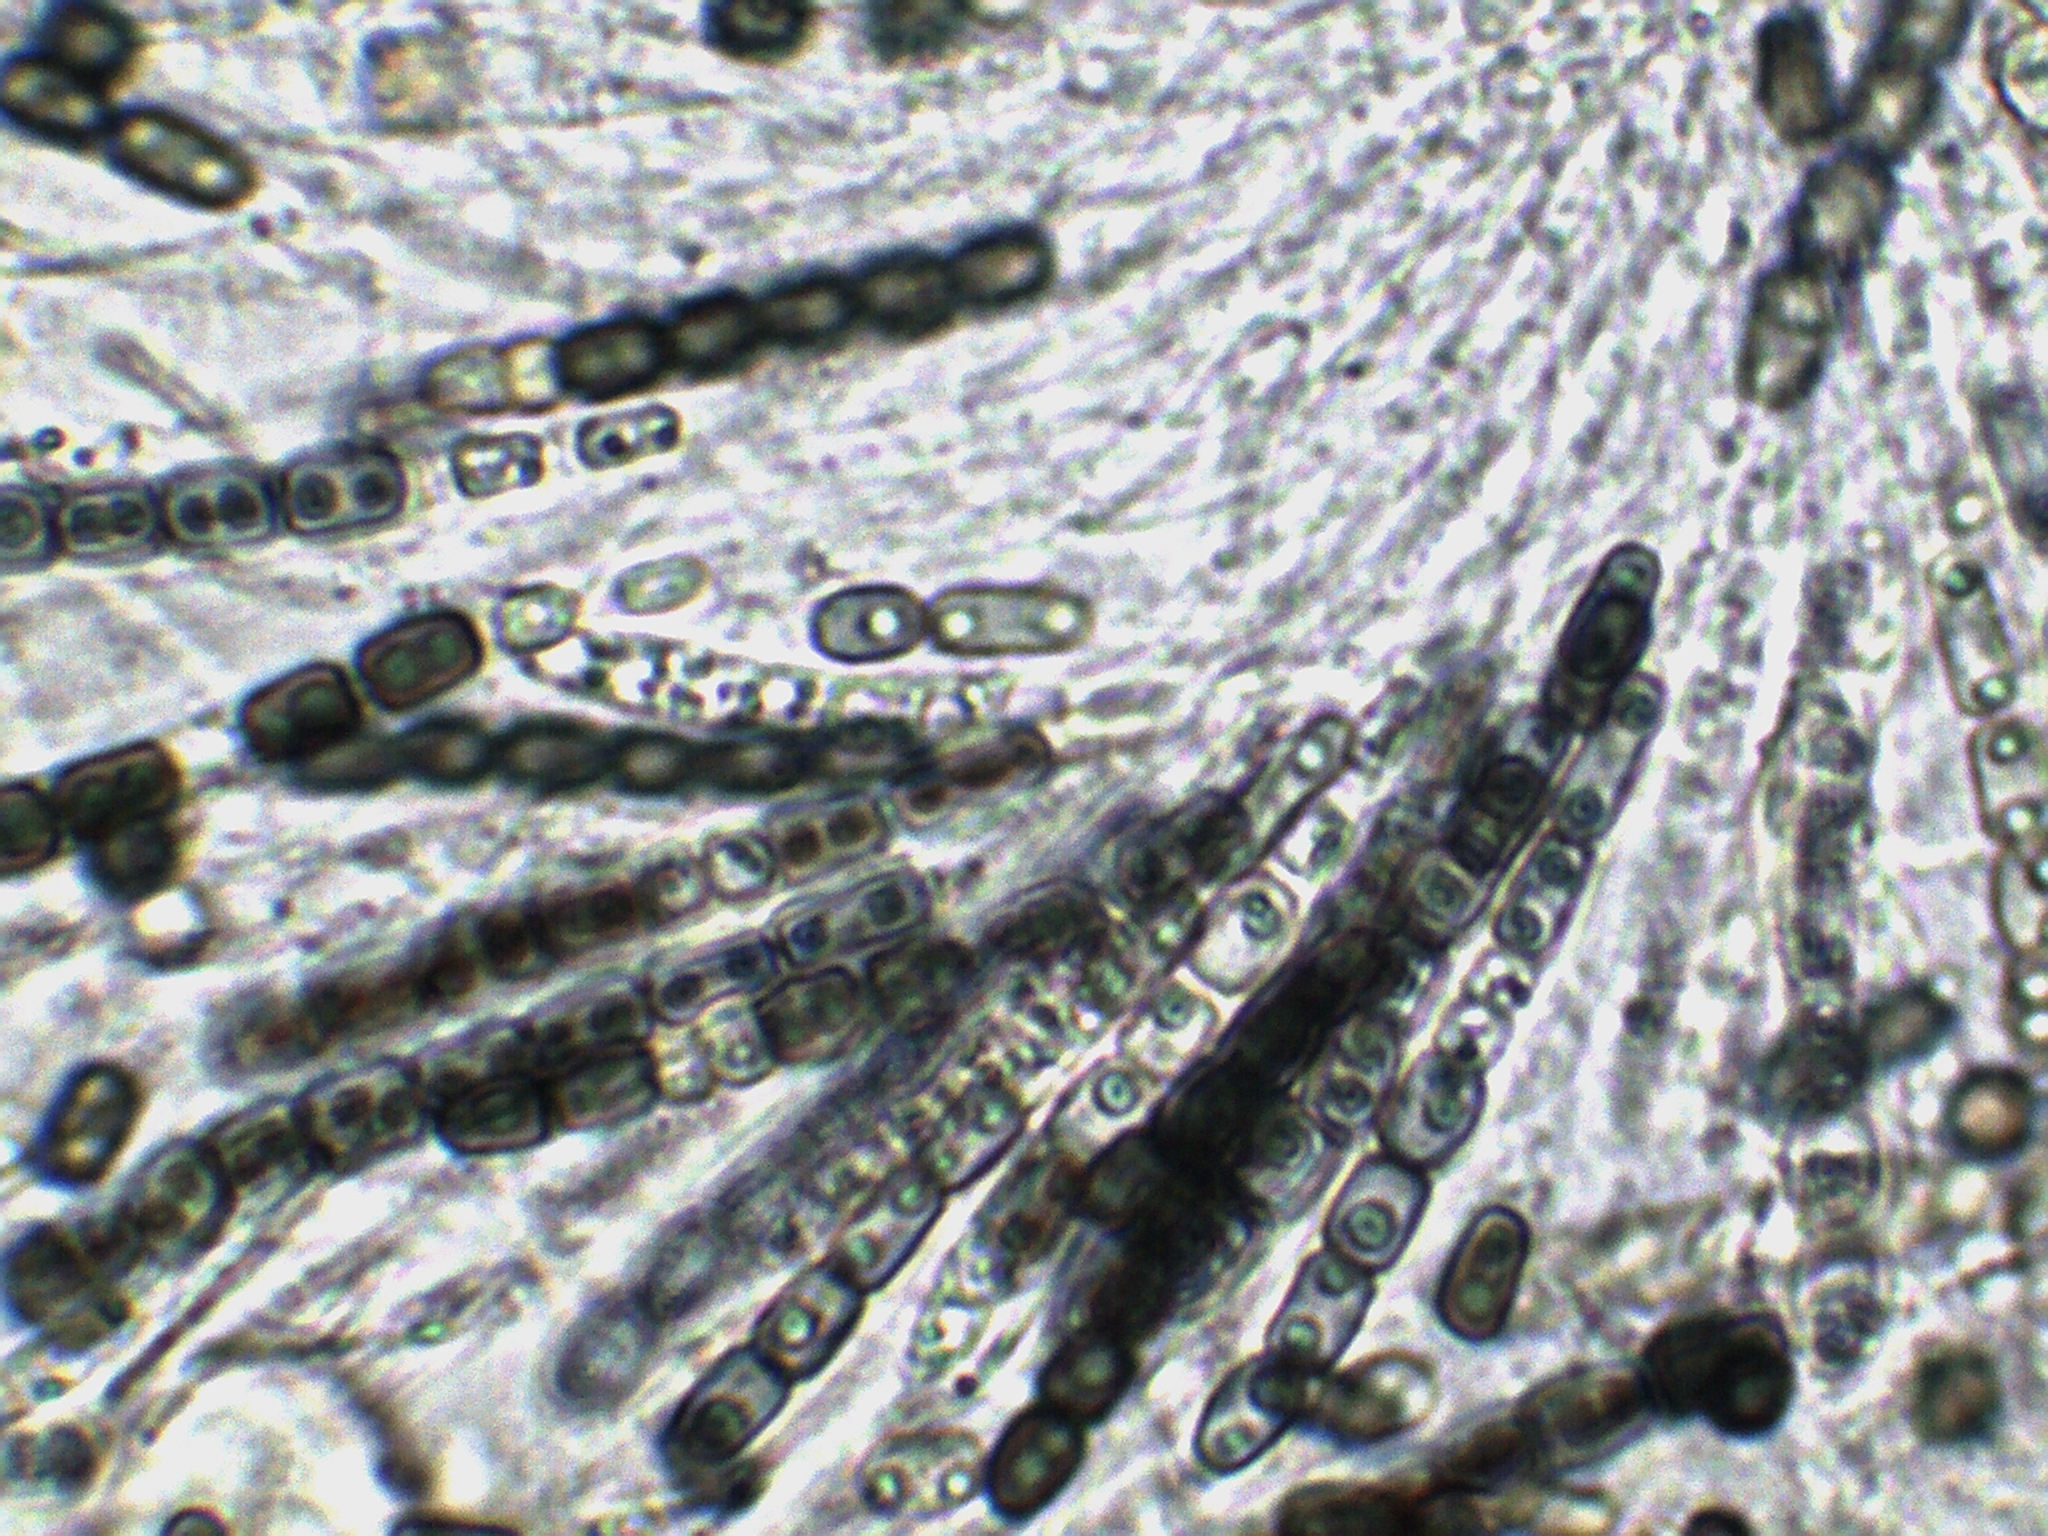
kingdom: Fungi
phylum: Ascomycota
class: Sordariomycetes
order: Xylariales
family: Hypoxylaceae
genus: Thuemenella
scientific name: Thuemenella cubispora
